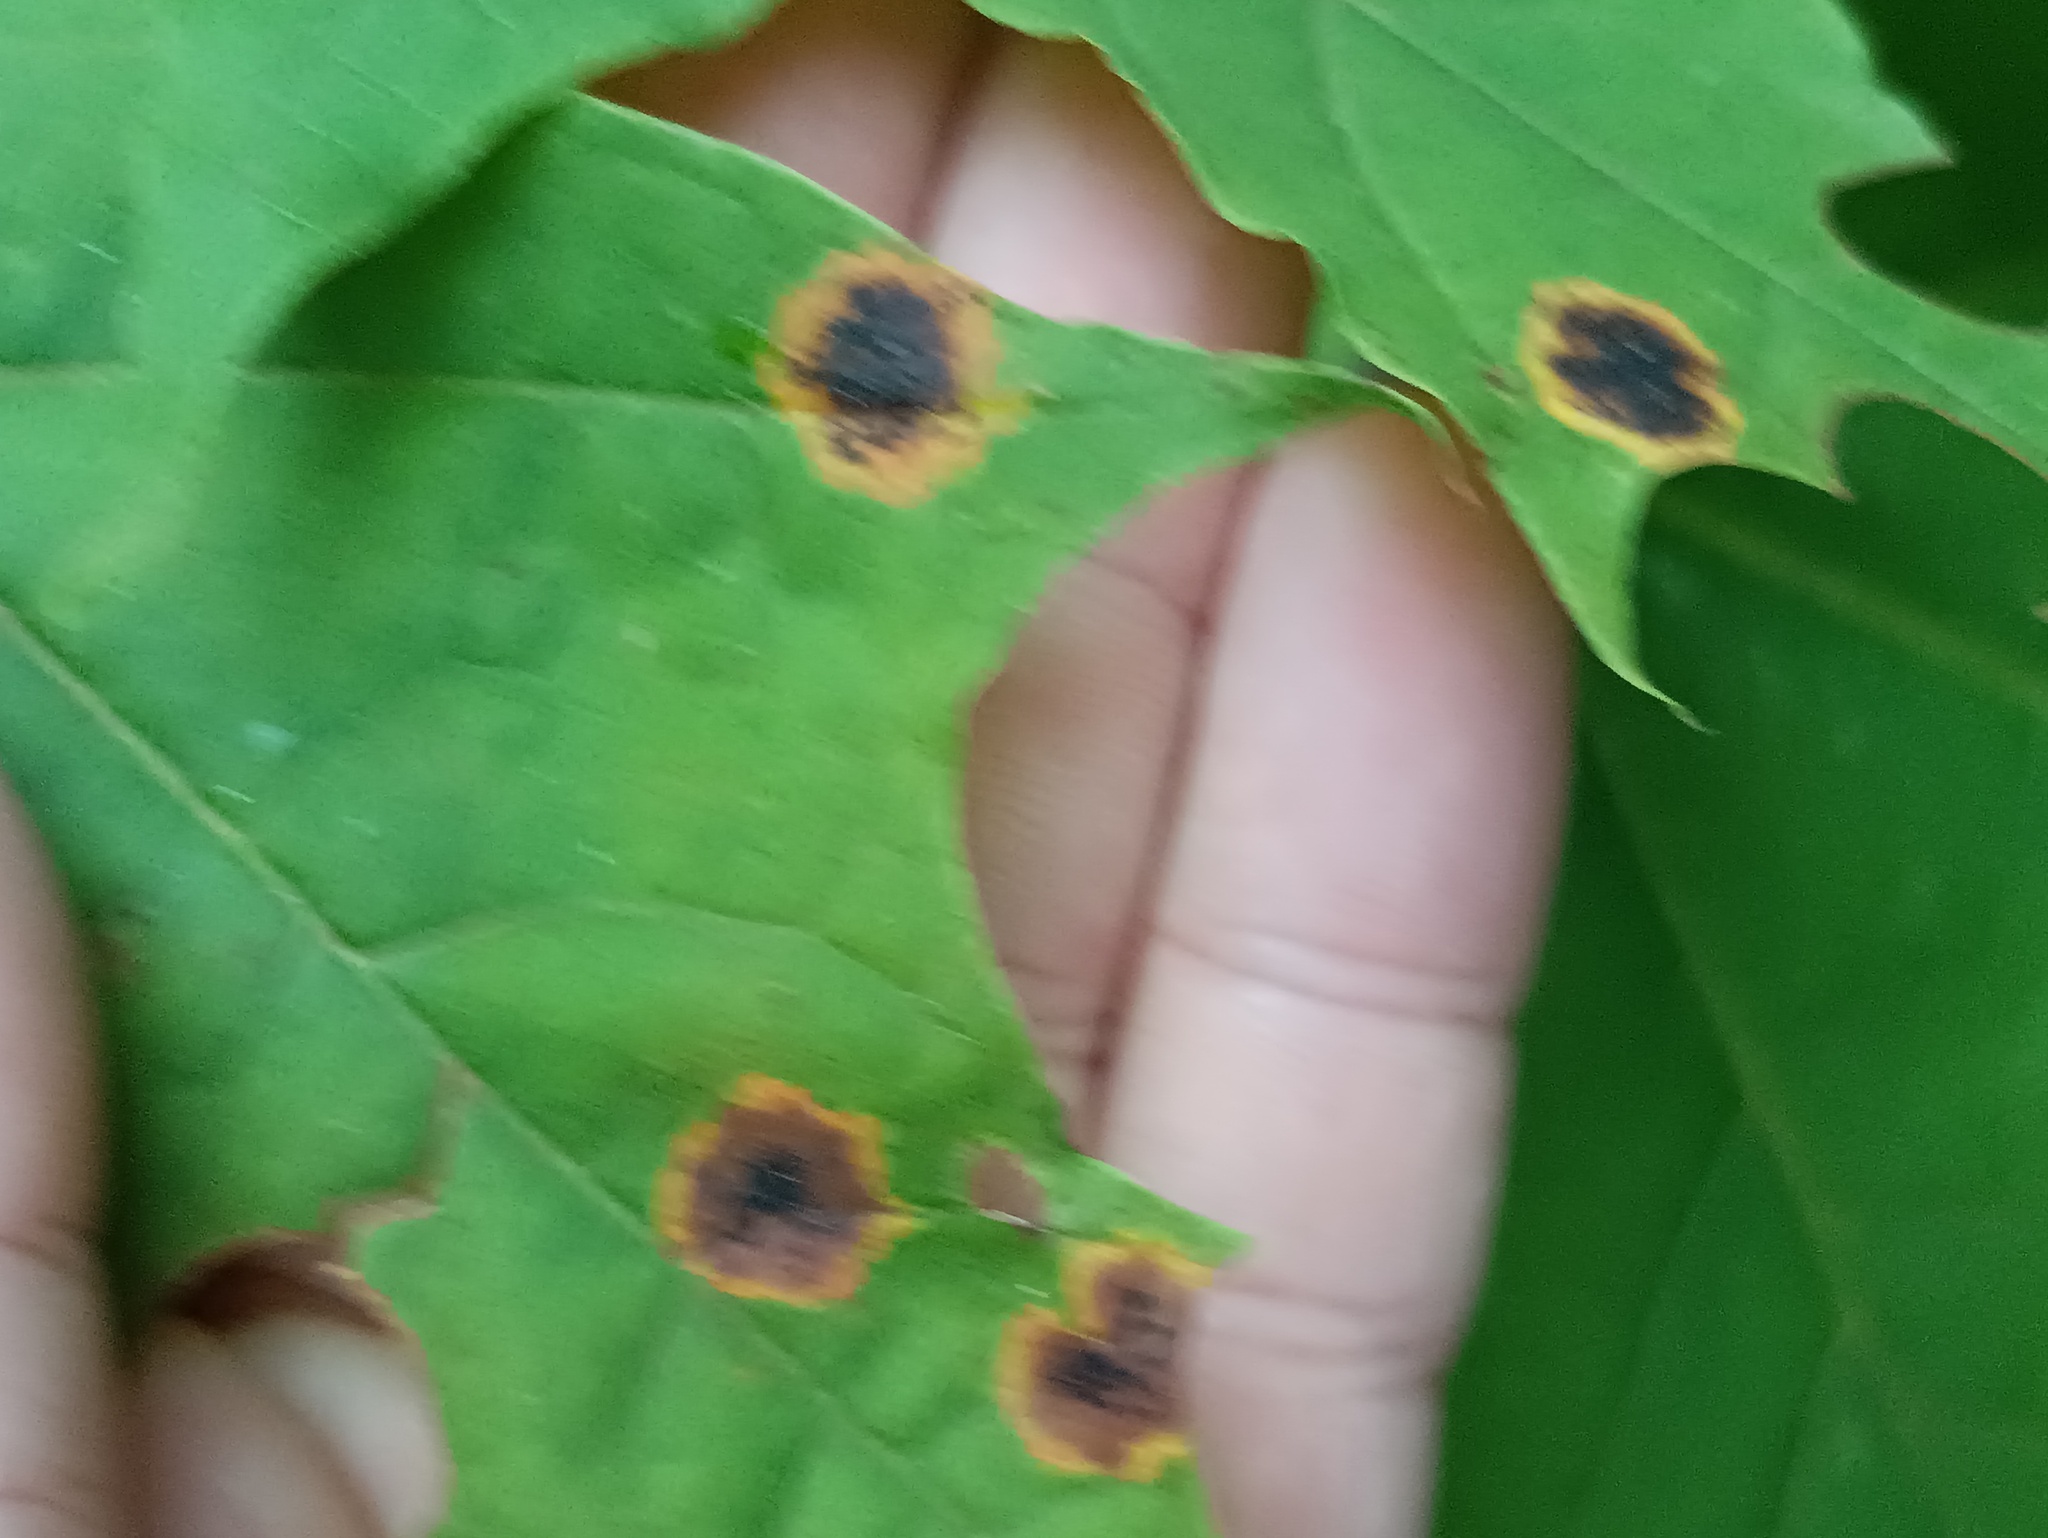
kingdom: Fungi
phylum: Ascomycota
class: Leotiomycetes
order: Rhytismatales
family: Rhytismataceae
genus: Rhytisma
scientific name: Rhytisma acerinum
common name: European tar spot
